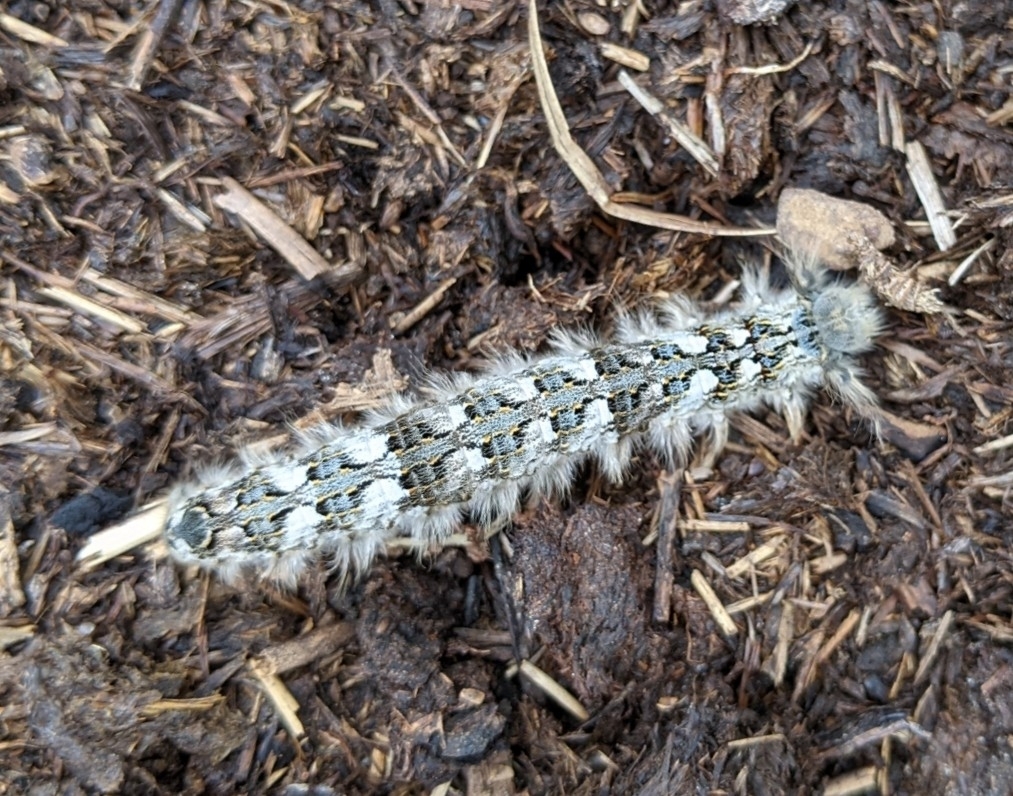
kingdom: Animalia
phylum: Arthropoda
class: Insecta
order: Lepidoptera
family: Lasiocampidae
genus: Phyllodesma
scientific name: Phyllodesma americana
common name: American lappet moth
